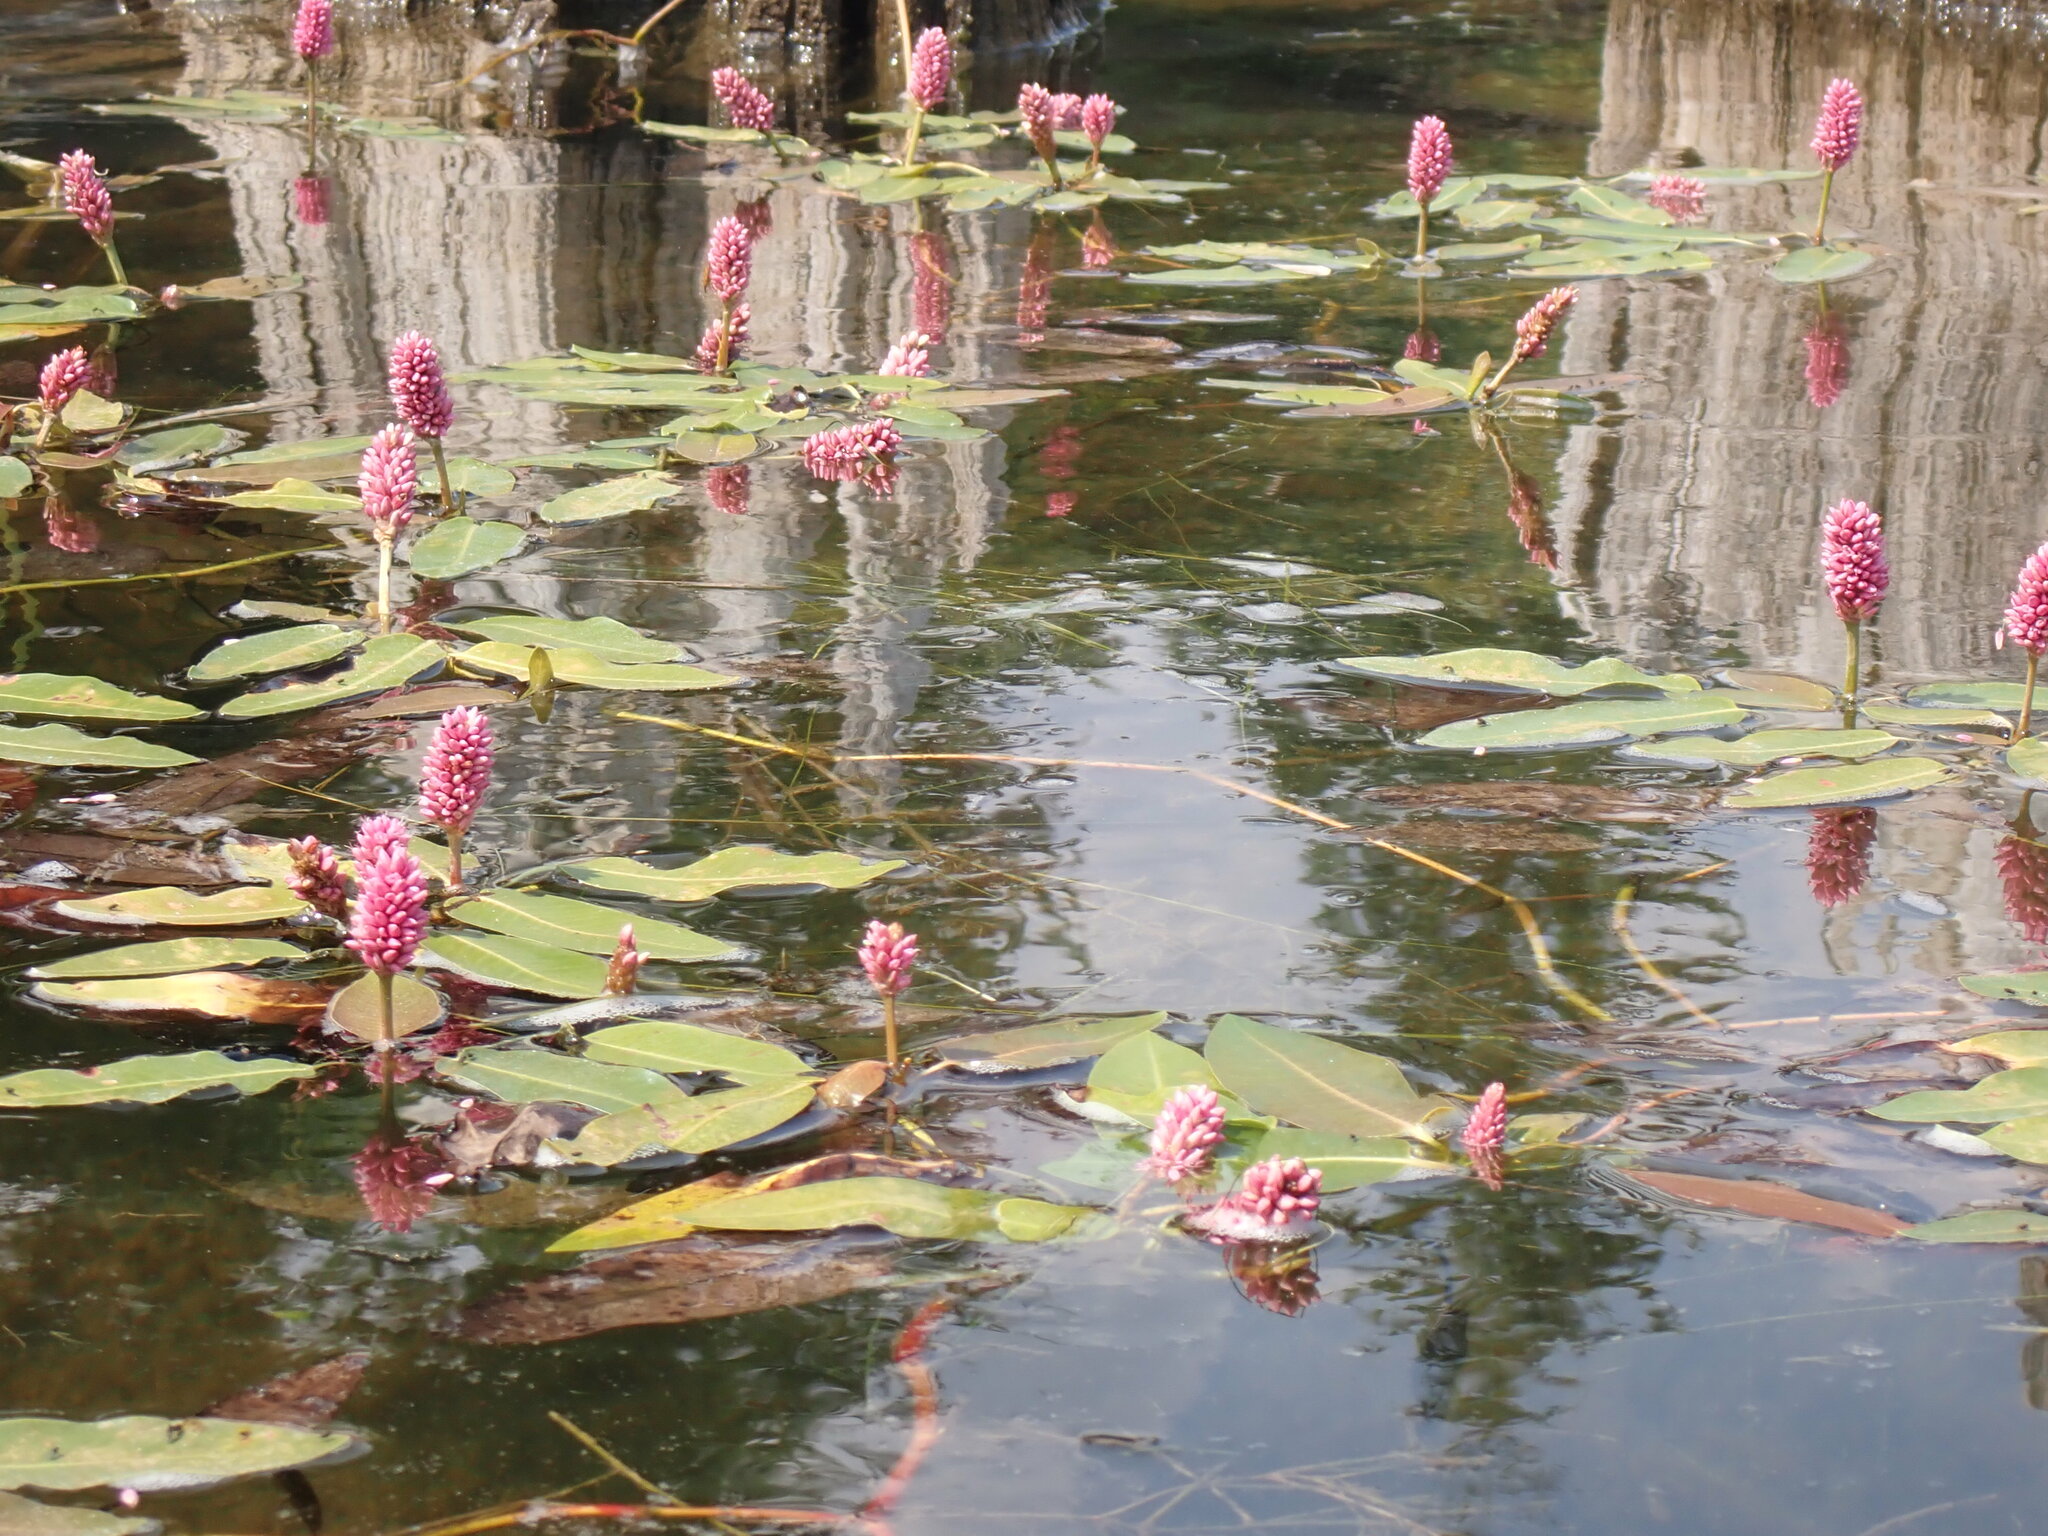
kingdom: Plantae
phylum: Tracheophyta
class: Magnoliopsida
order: Caryophyllales
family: Polygonaceae
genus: Persicaria
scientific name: Persicaria amphibia
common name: Amphibious bistort
